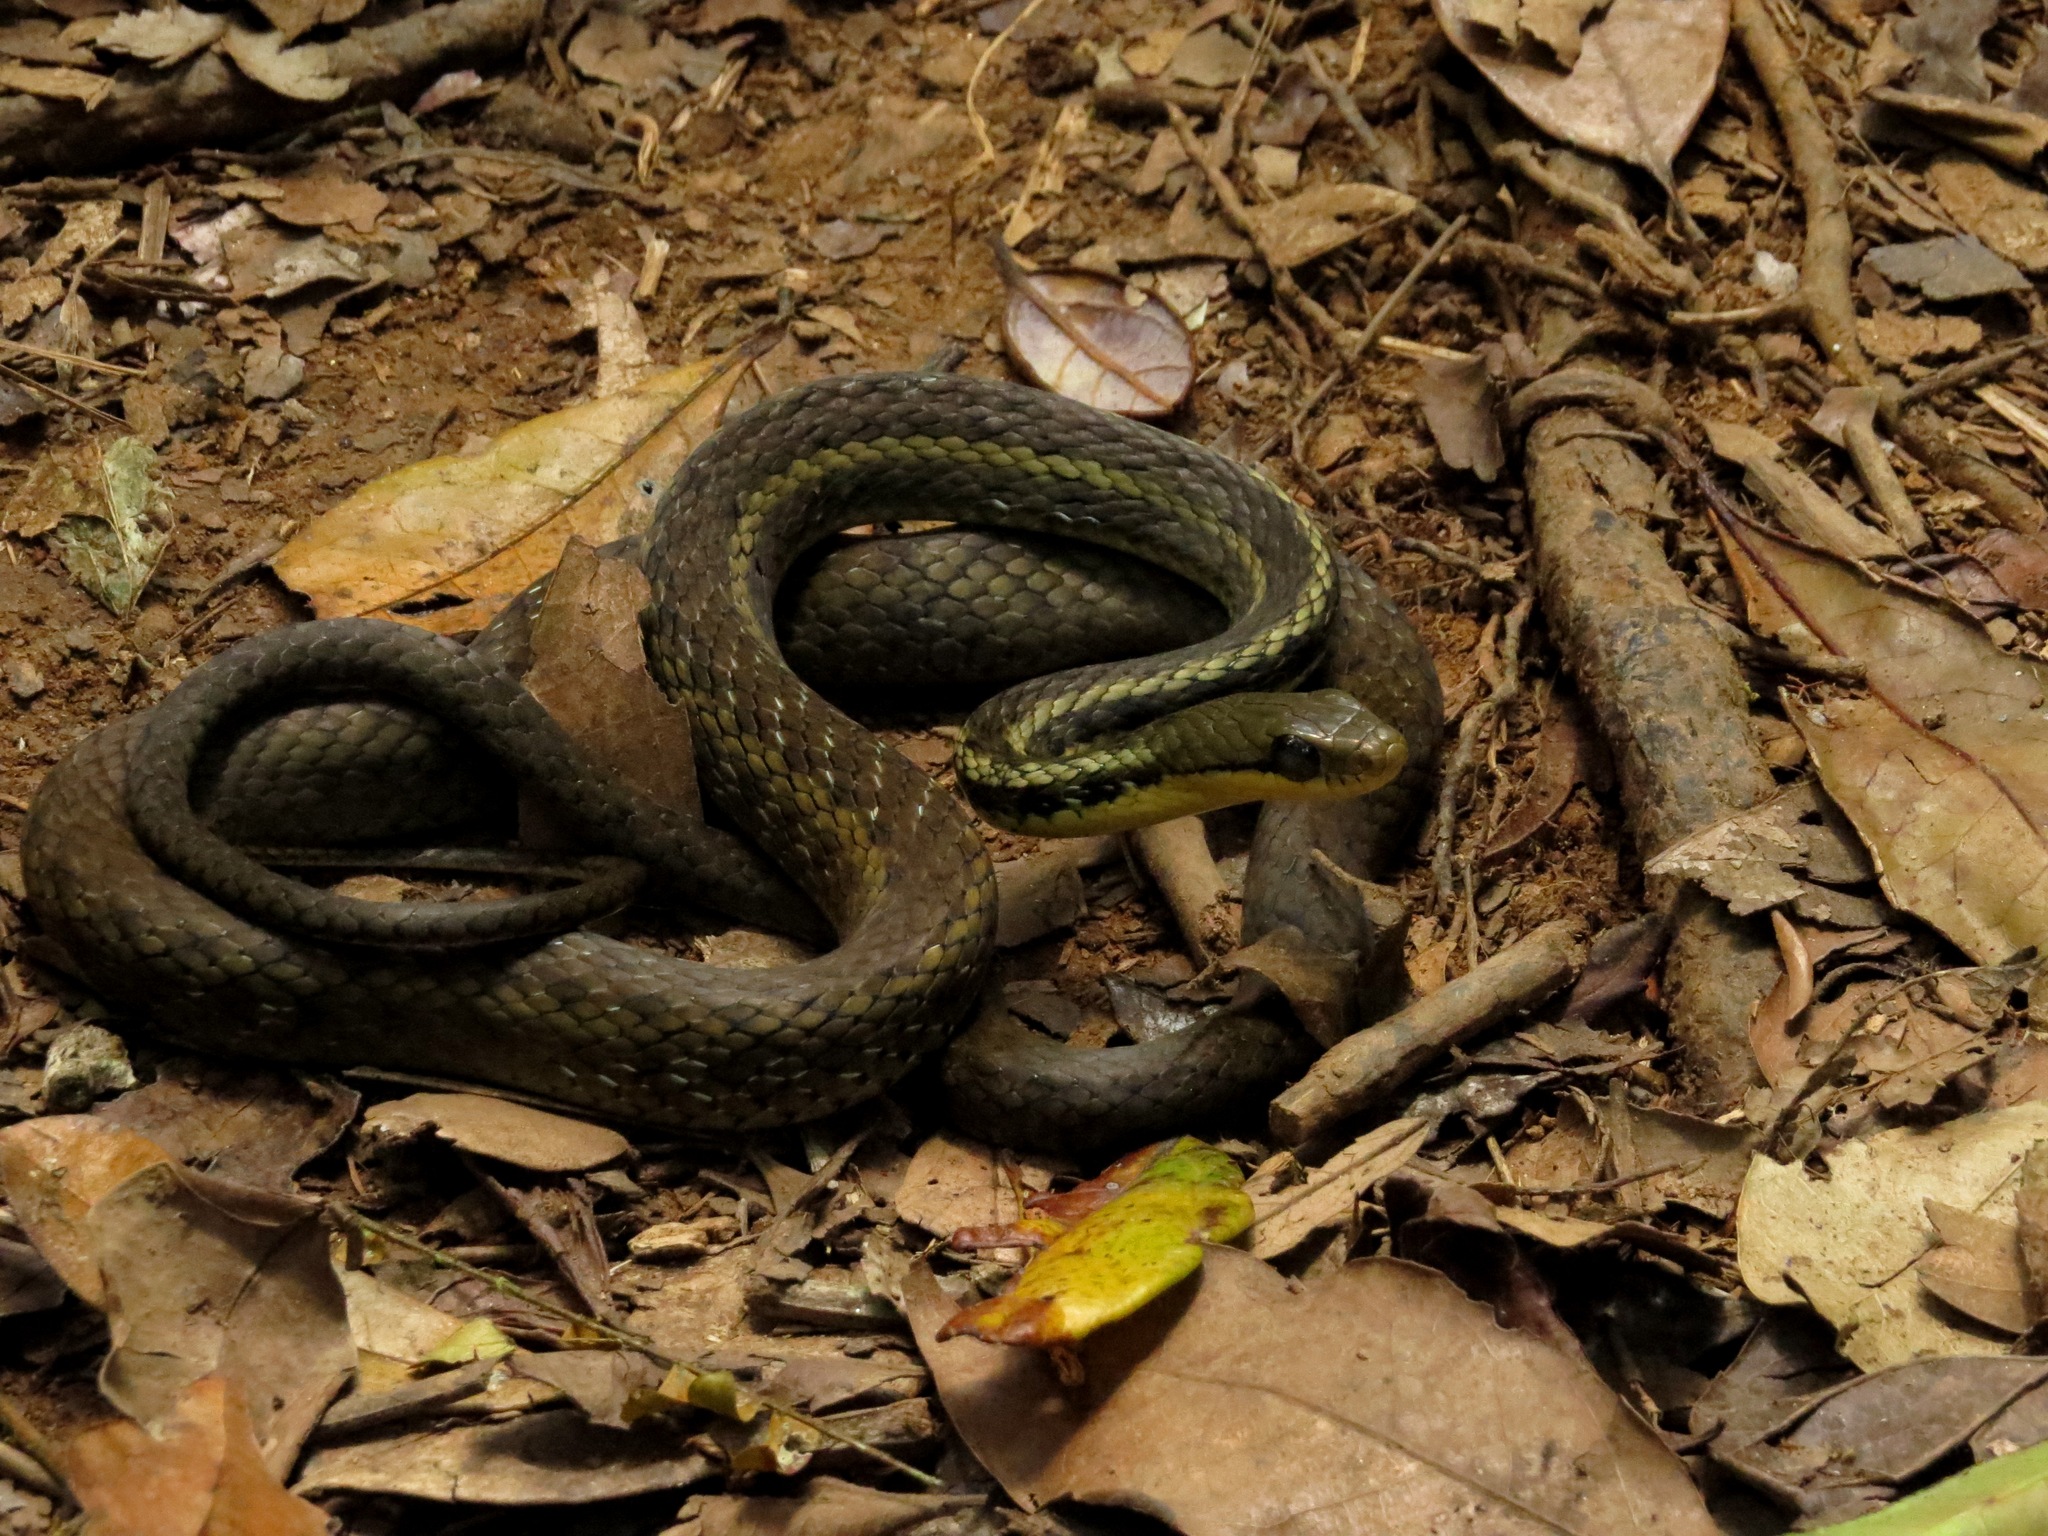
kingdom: Animalia
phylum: Chordata
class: Squamata
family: Pseudoxyrhophiidae
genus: Thamnosophis
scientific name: Thamnosophis epistibes
